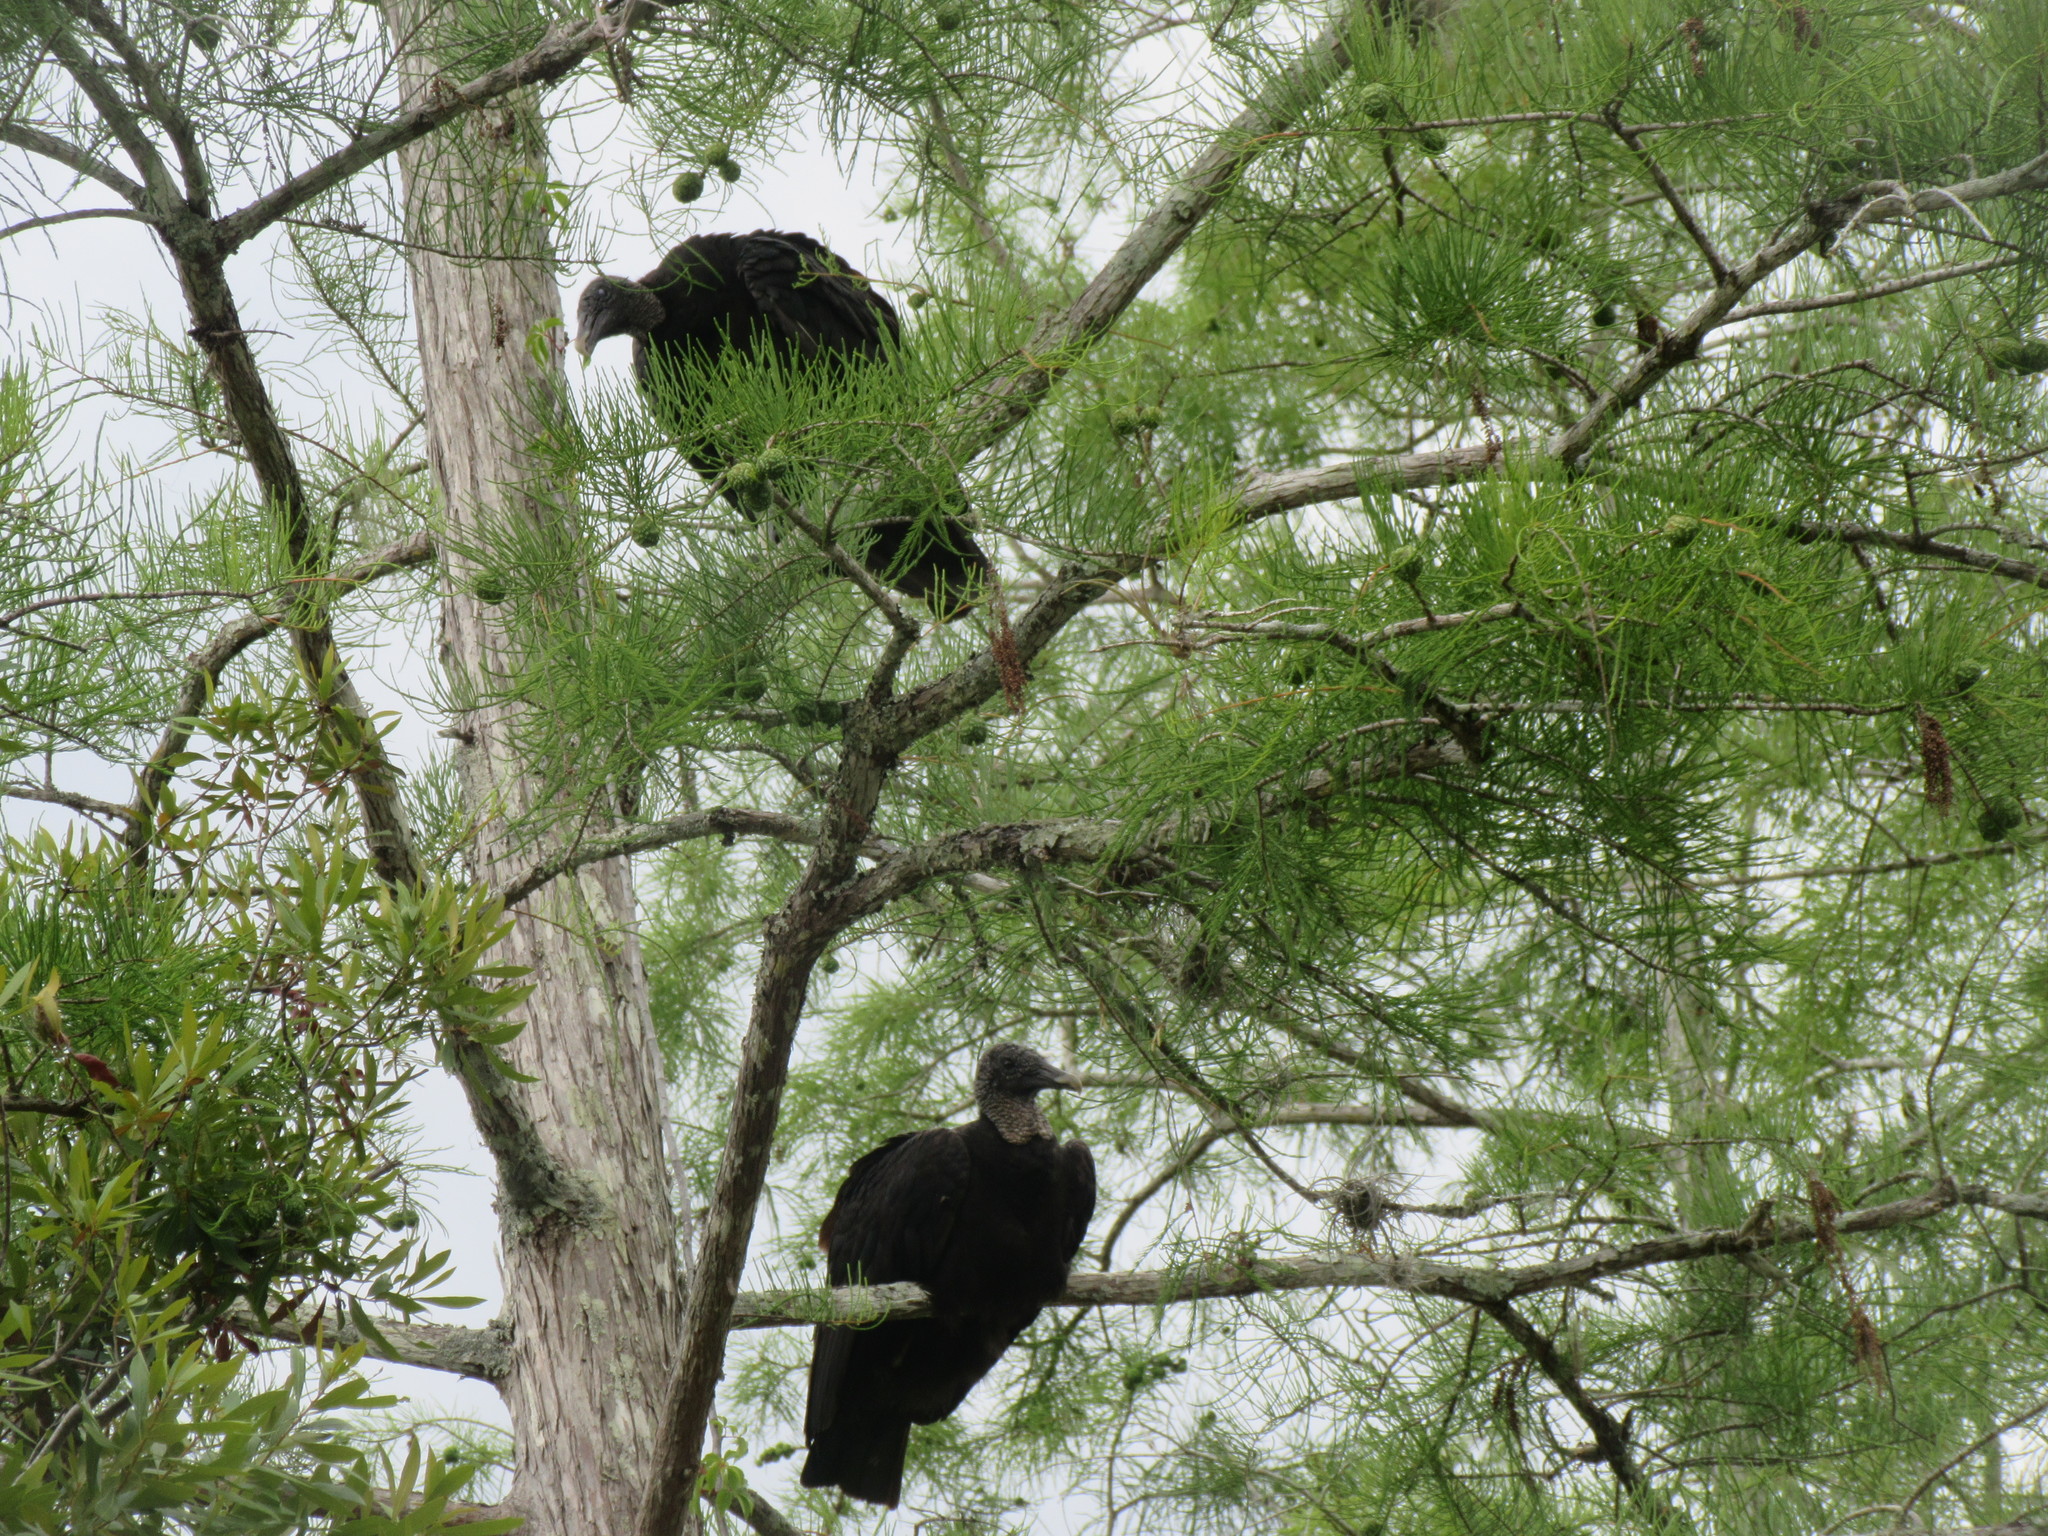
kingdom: Animalia
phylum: Chordata
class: Aves
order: Accipitriformes
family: Cathartidae
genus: Coragyps
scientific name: Coragyps atratus
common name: Black vulture
